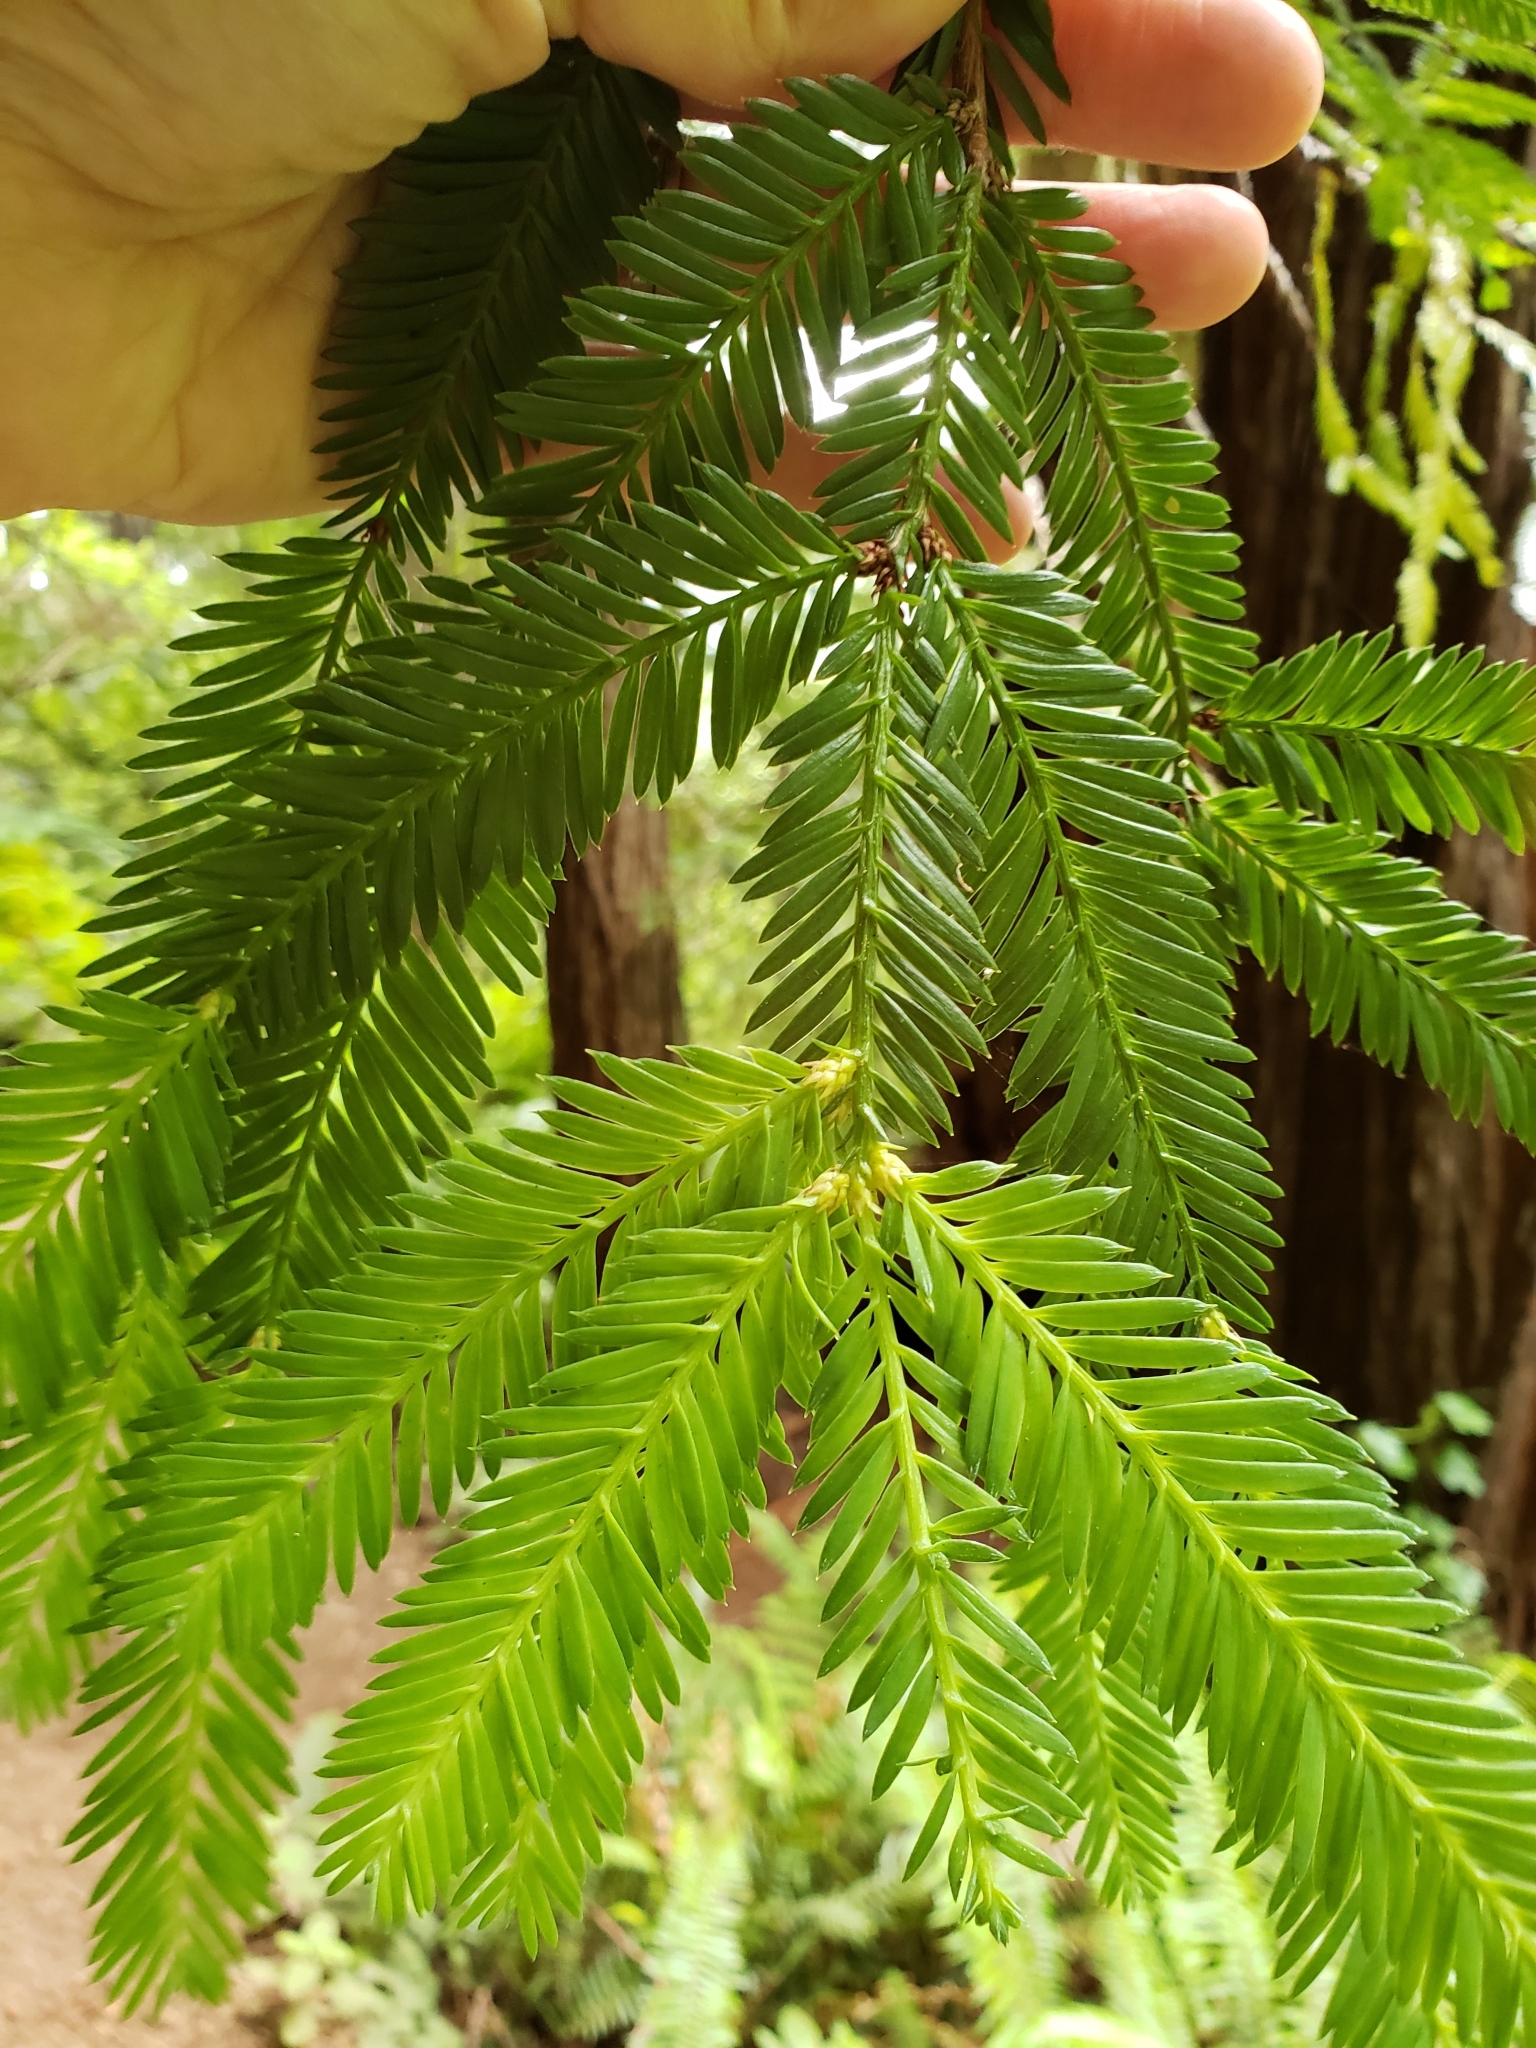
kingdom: Plantae
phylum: Tracheophyta
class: Pinopsida
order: Pinales
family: Cupressaceae
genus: Sequoia
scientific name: Sequoia sempervirens
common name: Coast redwood
